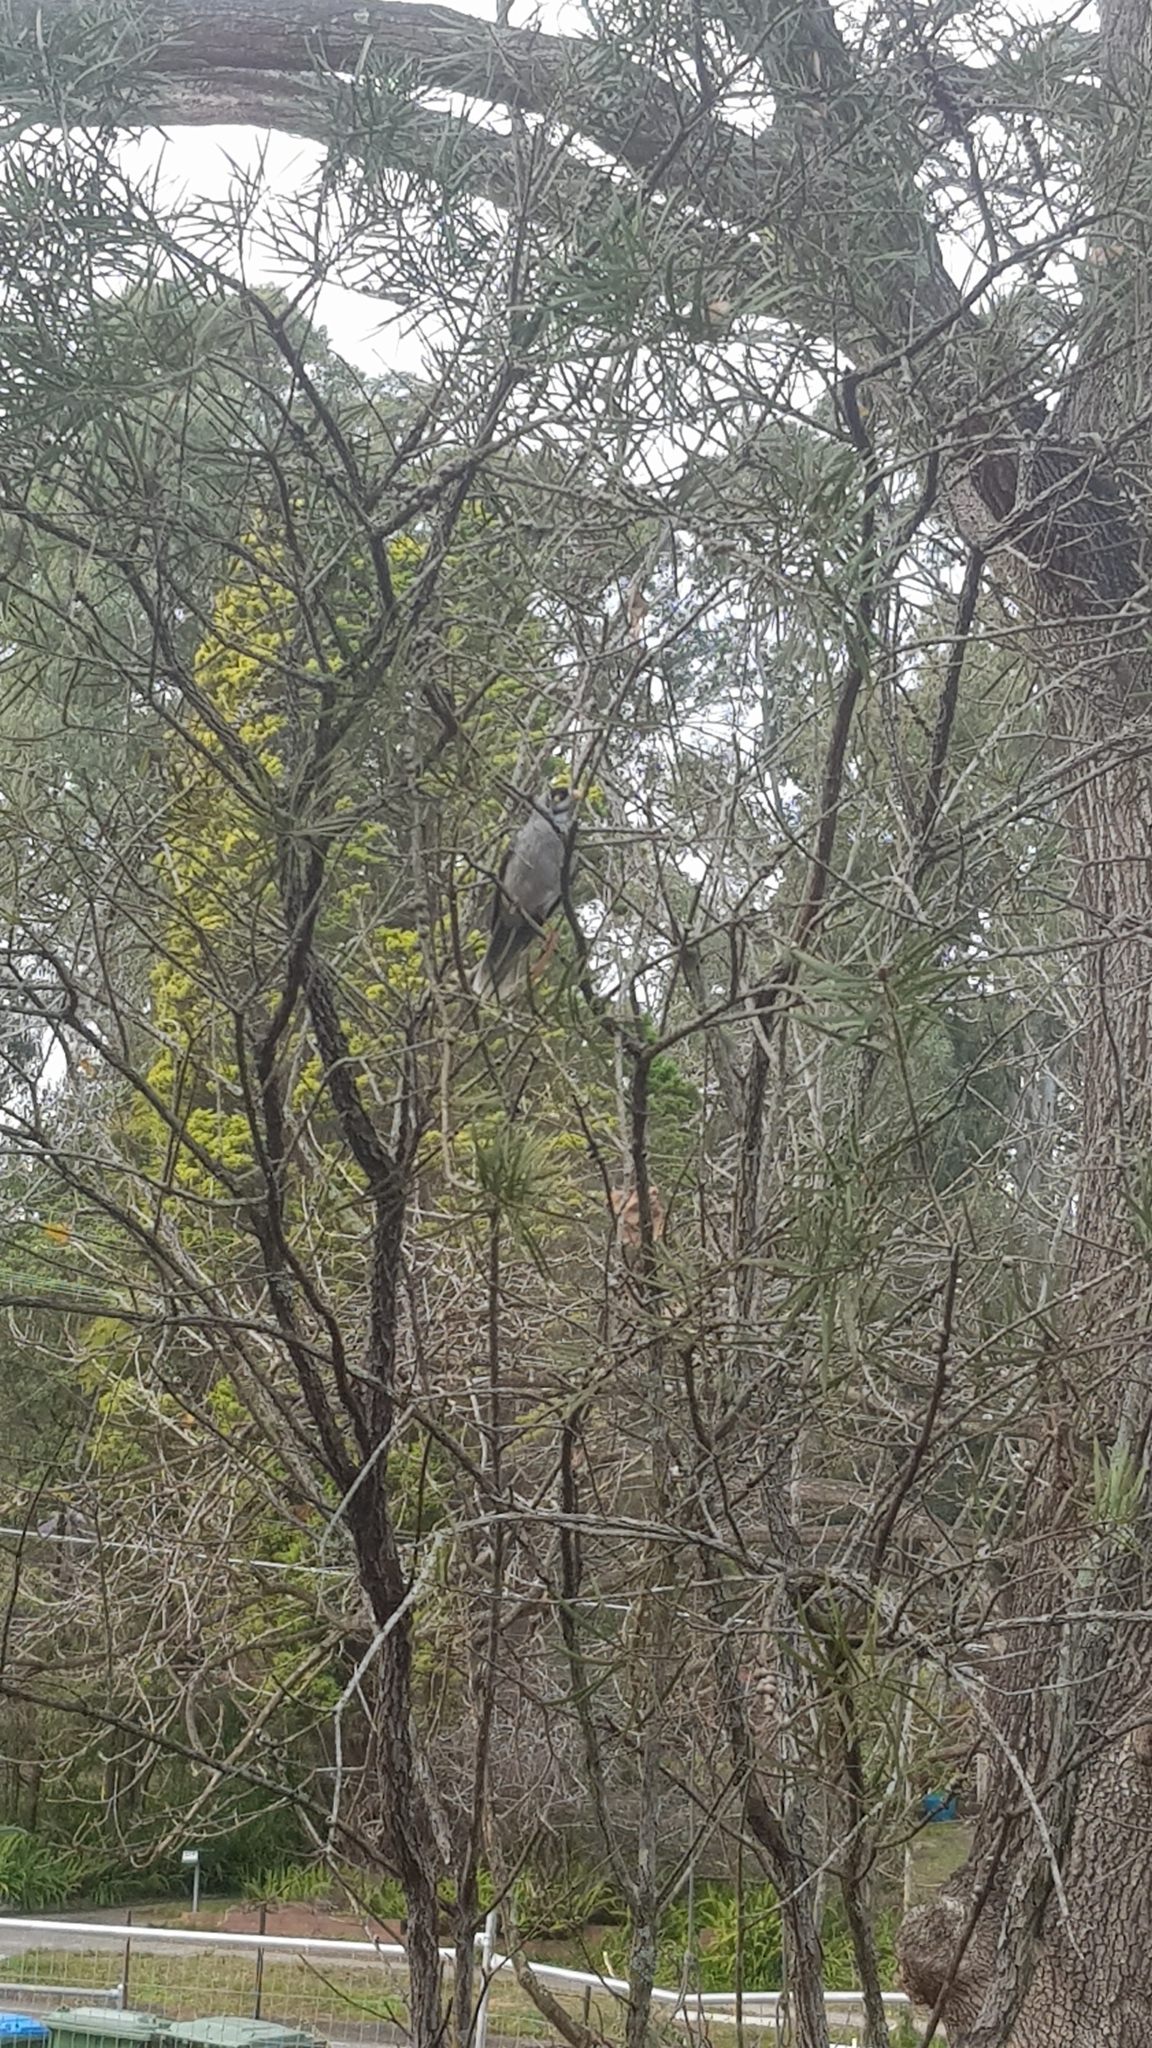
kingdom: Animalia
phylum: Chordata
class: Aves
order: Passeriformes
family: Meliphagidae
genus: Manorina
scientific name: Manorina melanocephala
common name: Noisy miner
